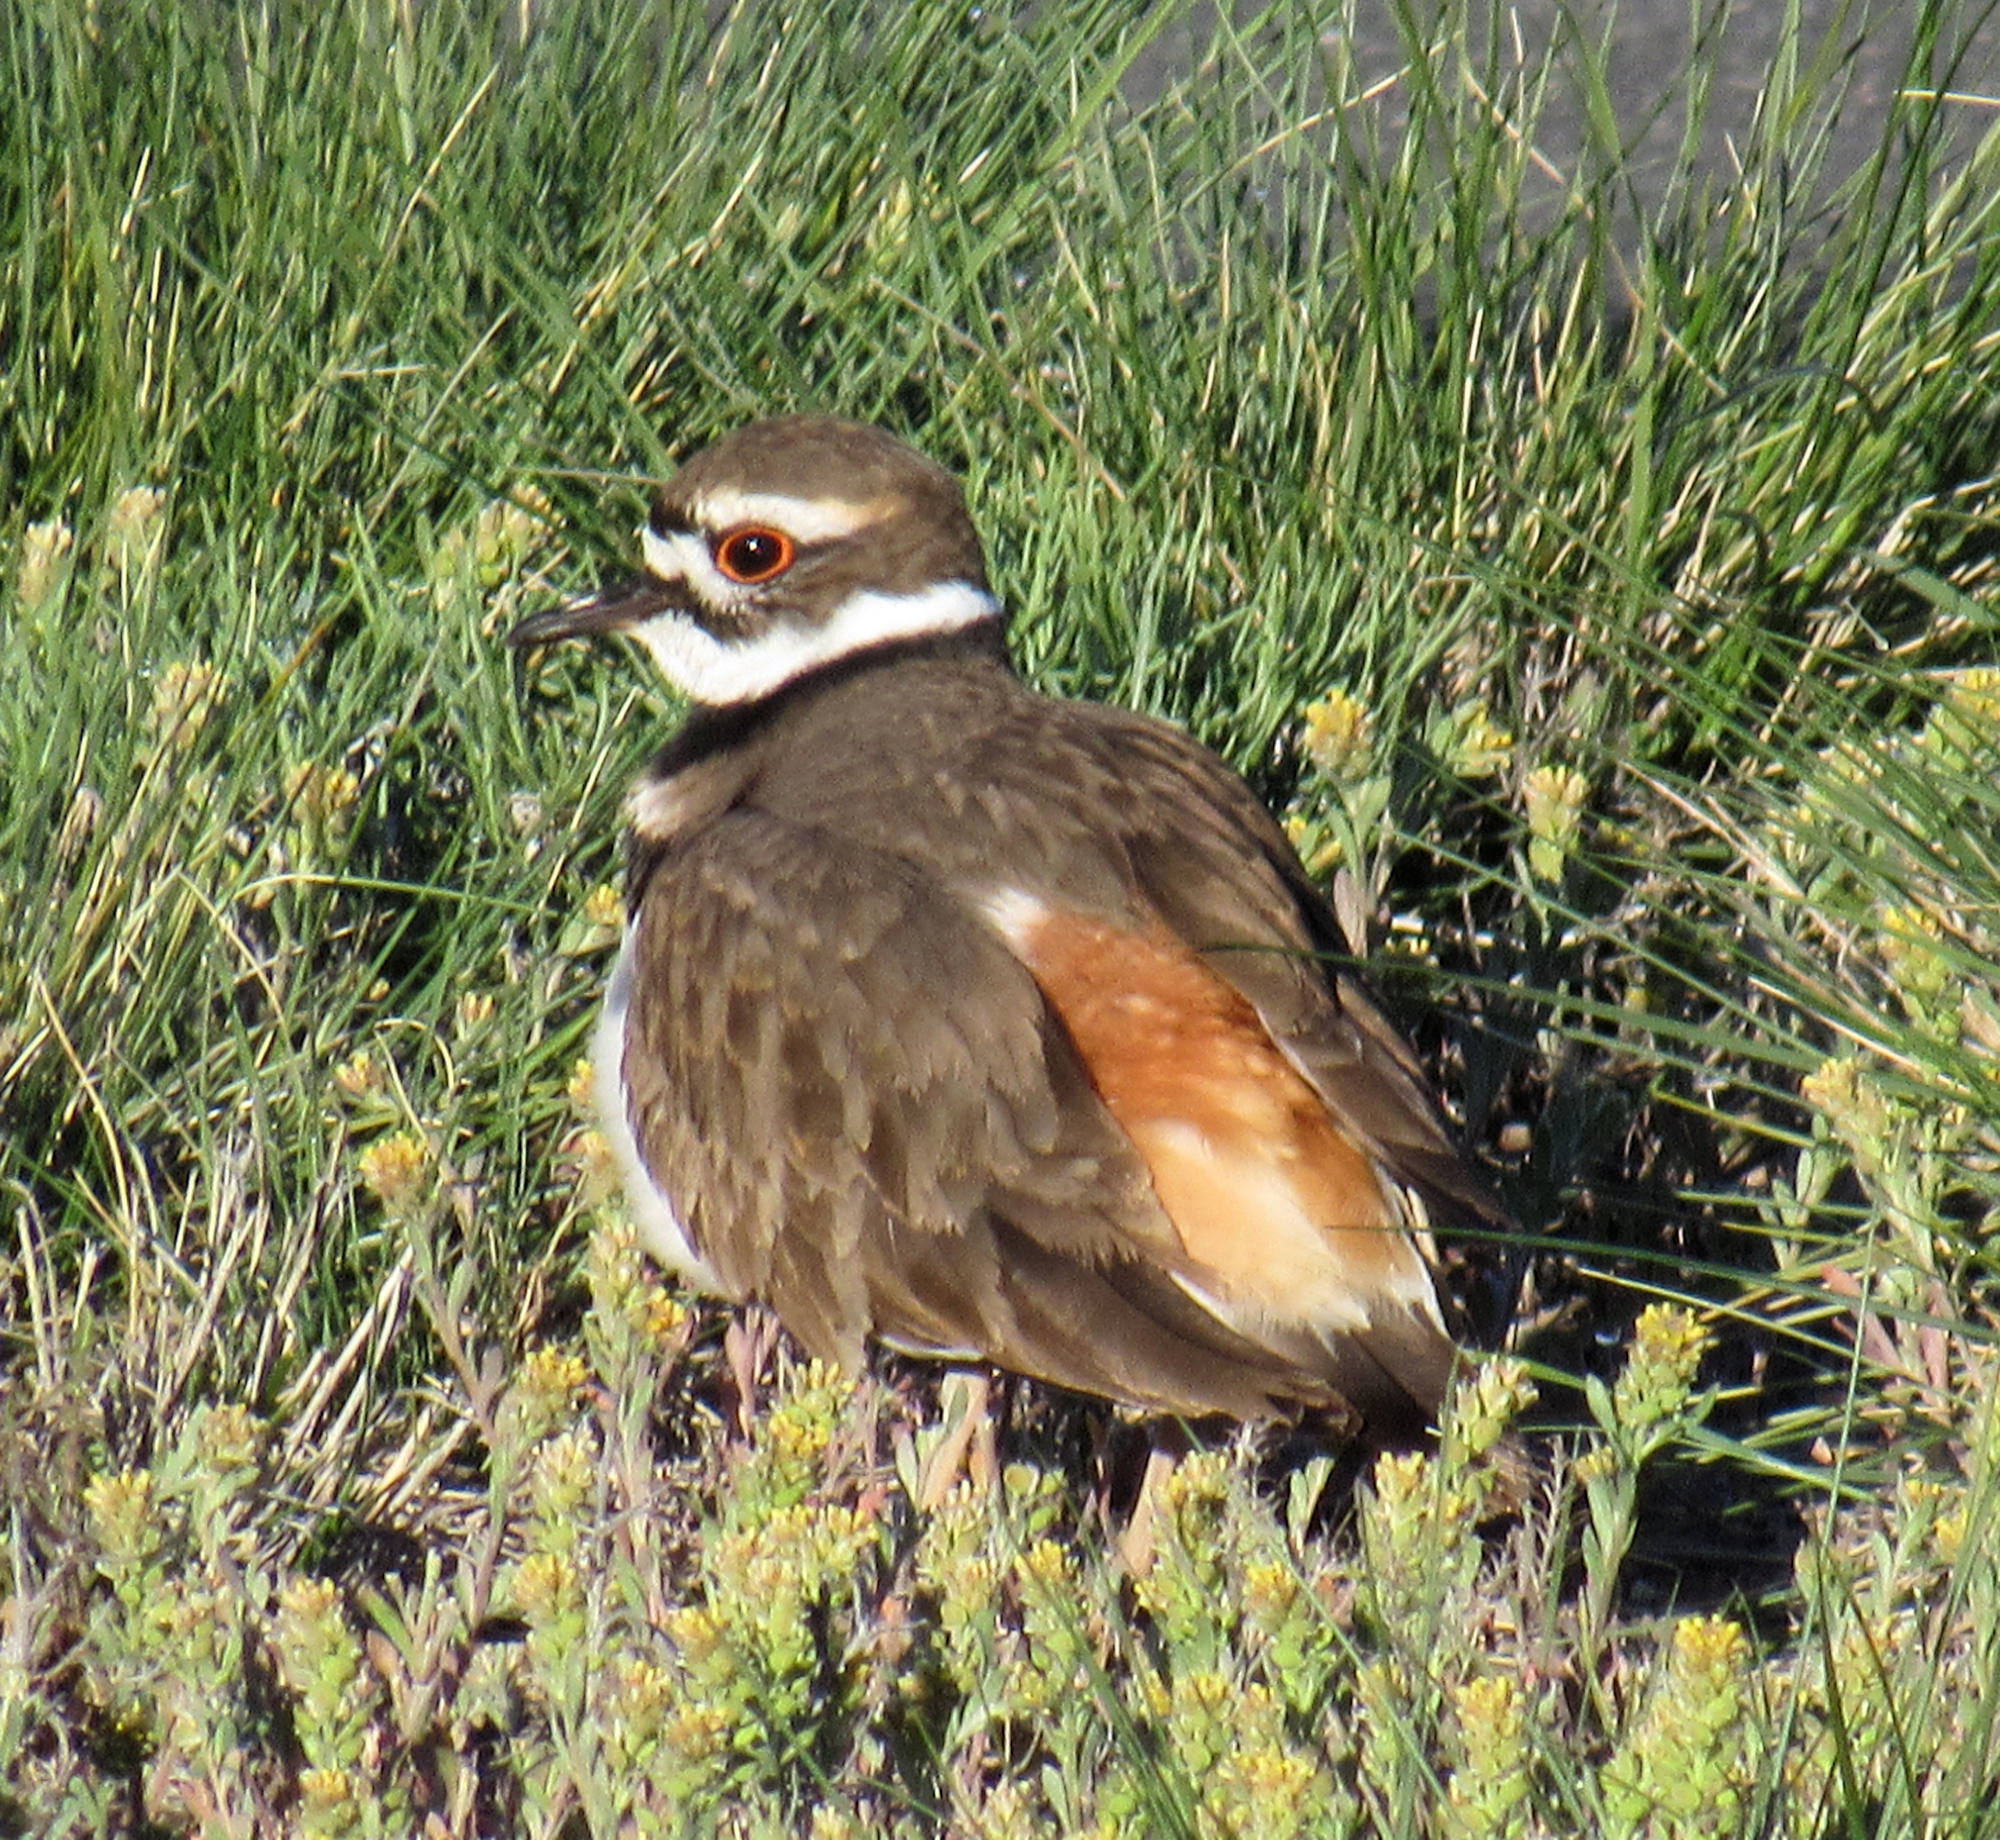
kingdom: Animalia
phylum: Chordata
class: Aves
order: Charadriiformes
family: Charadriidae
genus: Charadrius
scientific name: Charadrius vociferus
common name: Killdeer
